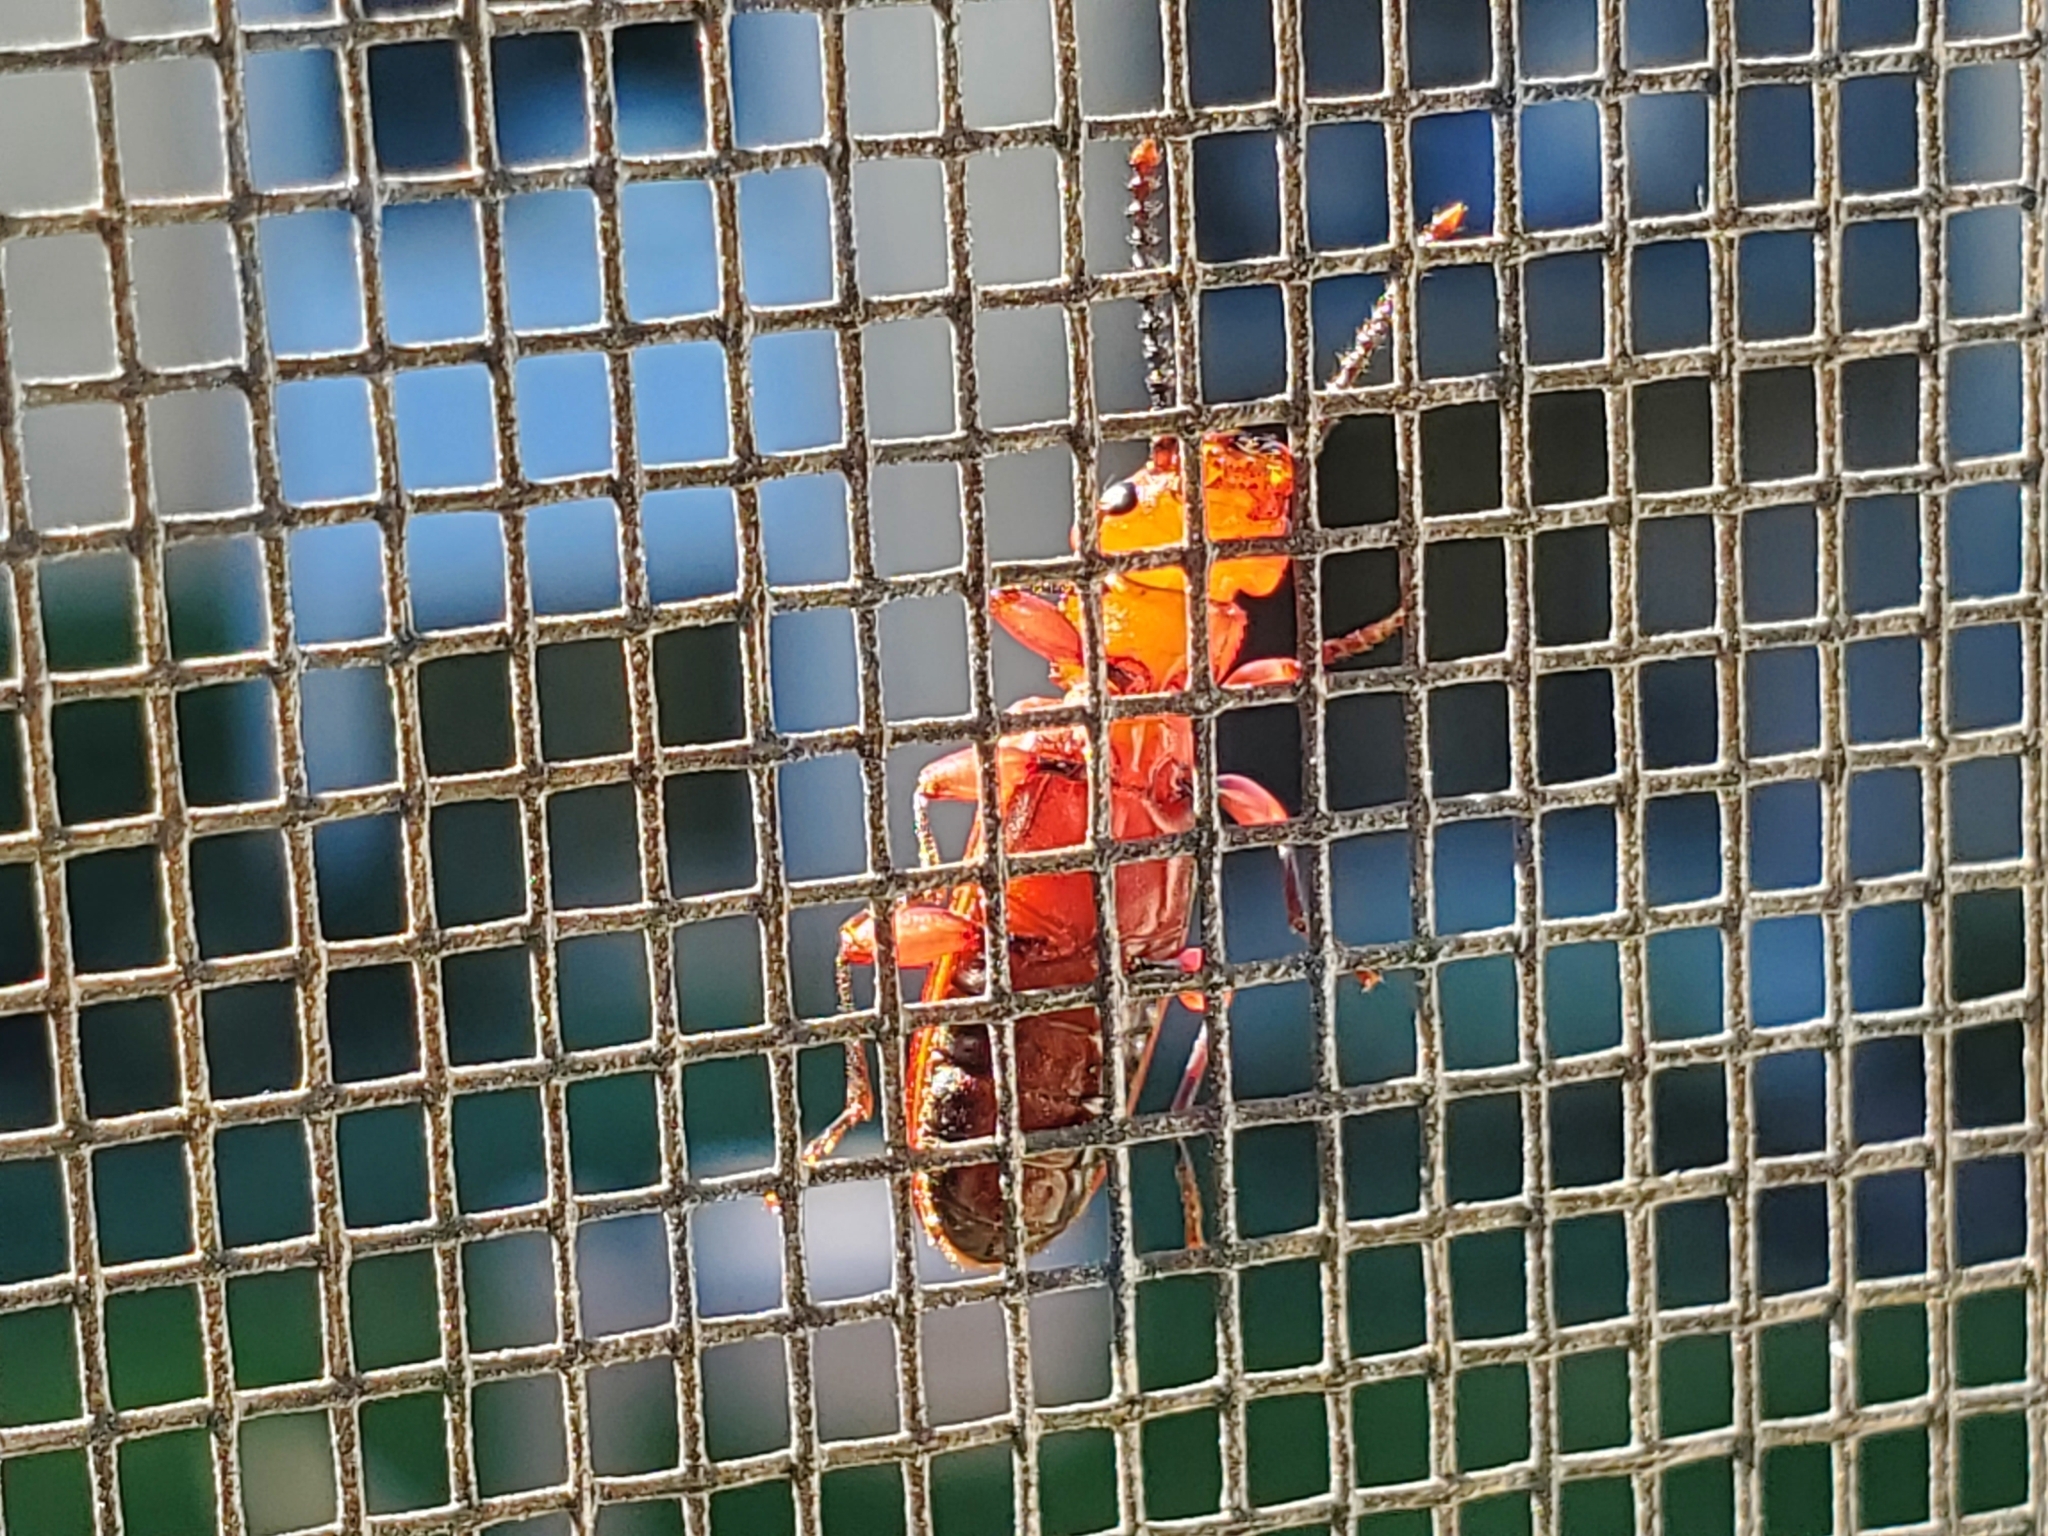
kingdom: Animalia
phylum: Arthropoda
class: Insecta
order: Coleoptera
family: Cucujidae
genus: Cucujus
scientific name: Cucujus clavipes
